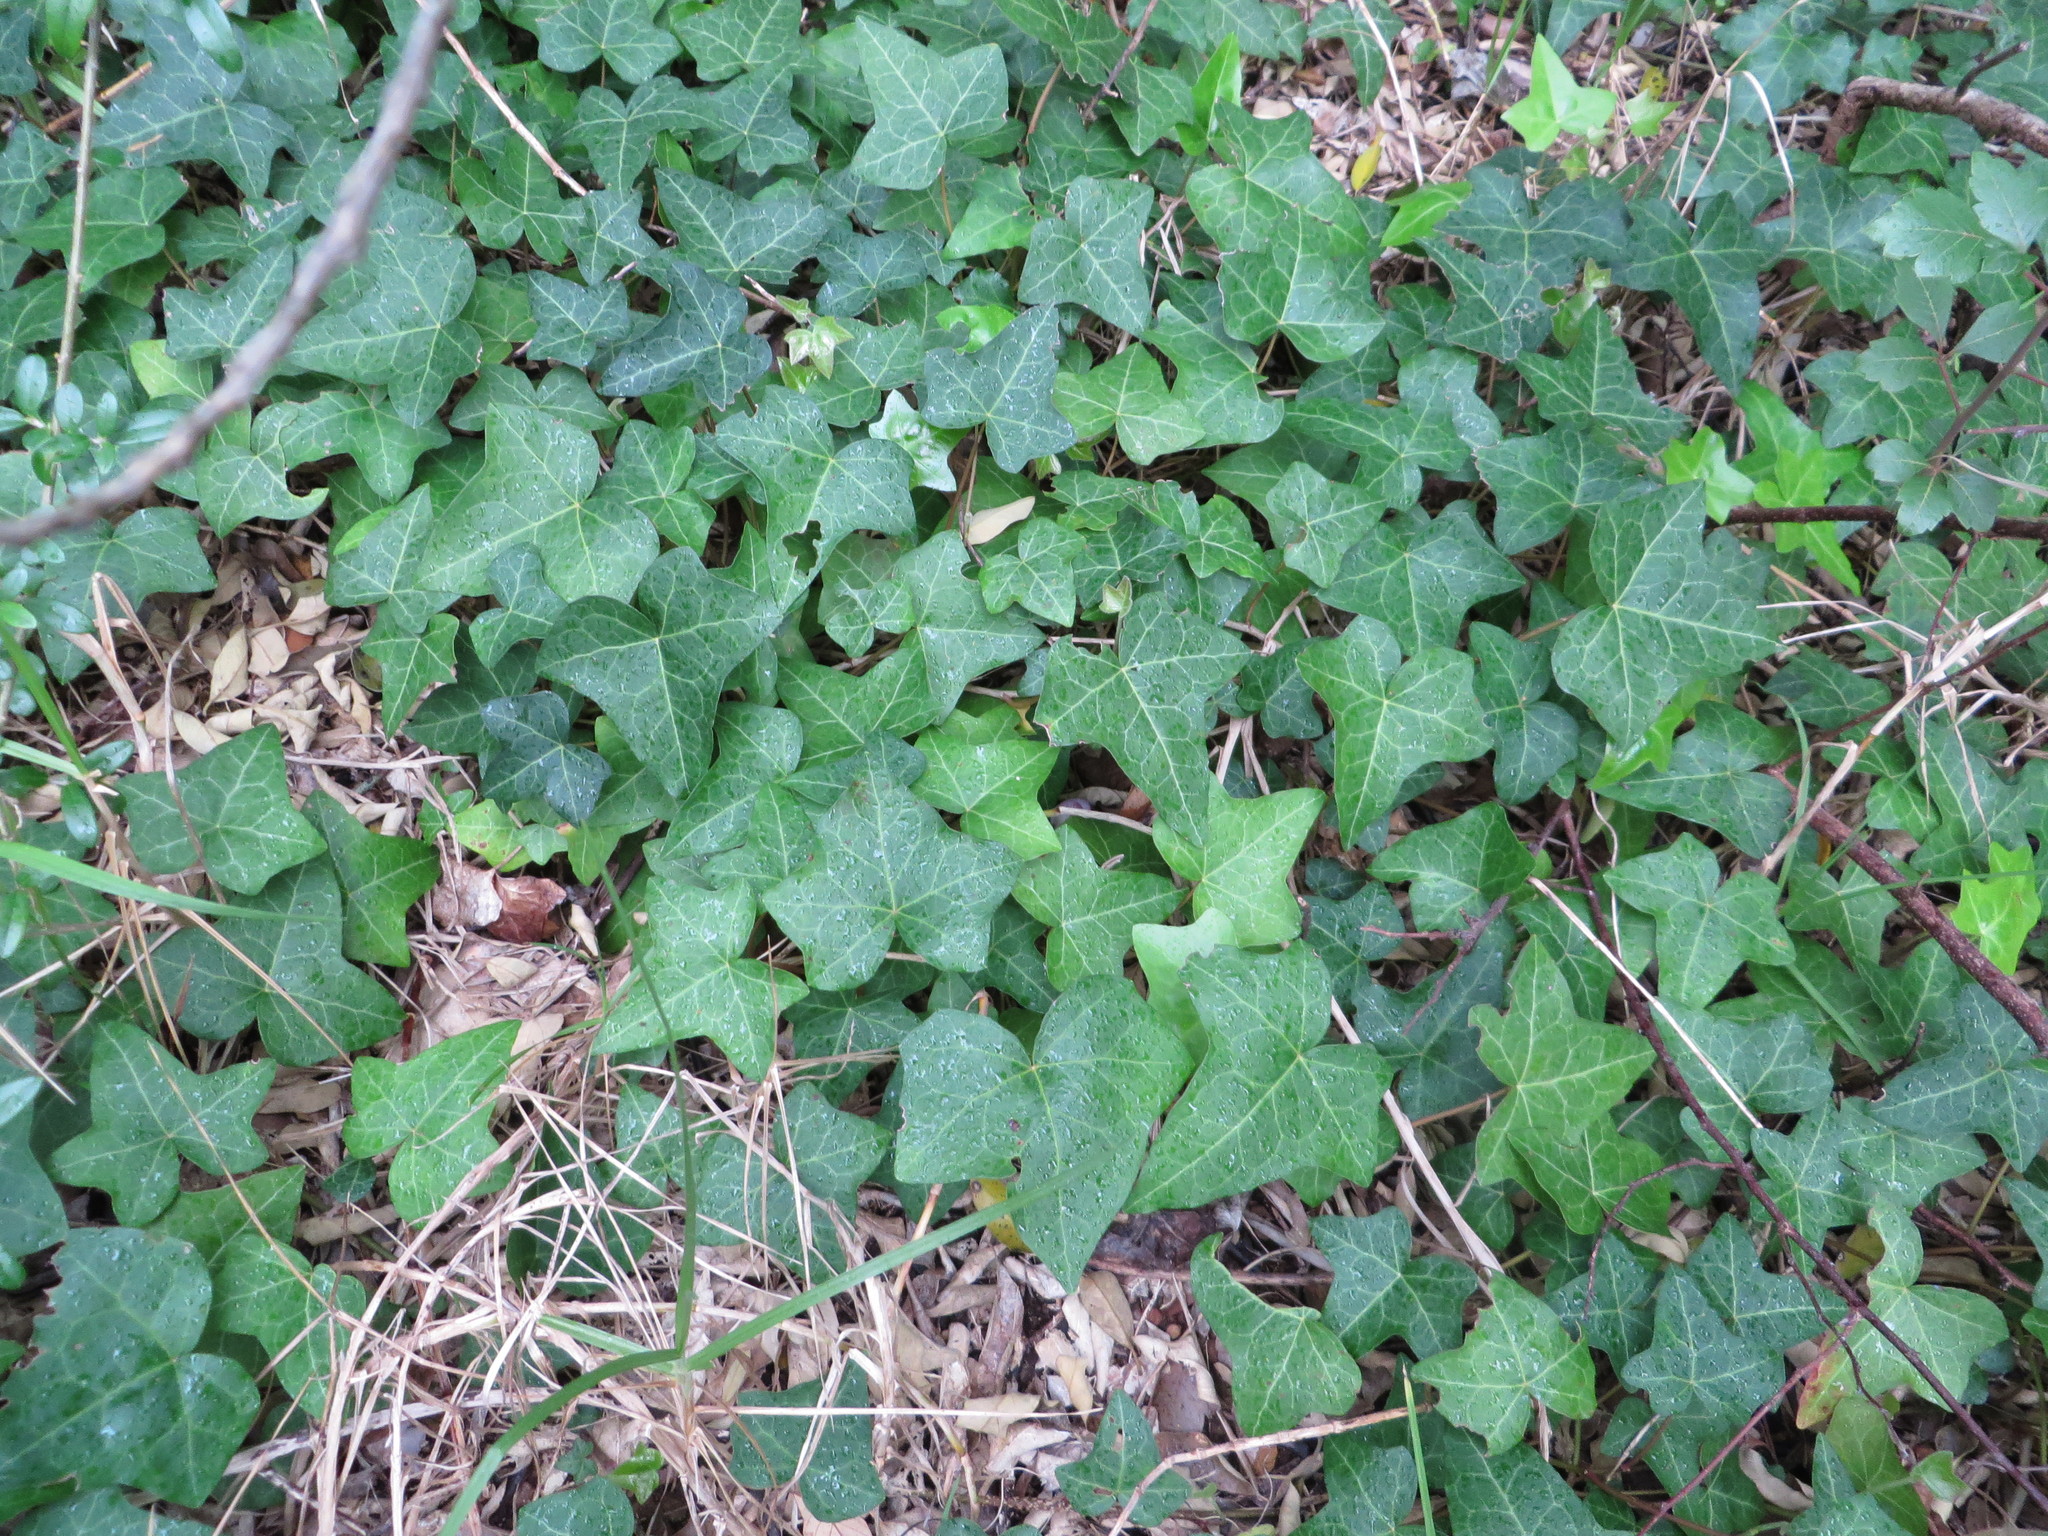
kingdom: Plantae
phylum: Tracheophyta
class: Magnoliopsida
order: Apiales
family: Araliaceae
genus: Hedera
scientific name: Hedera helix
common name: Ivy
